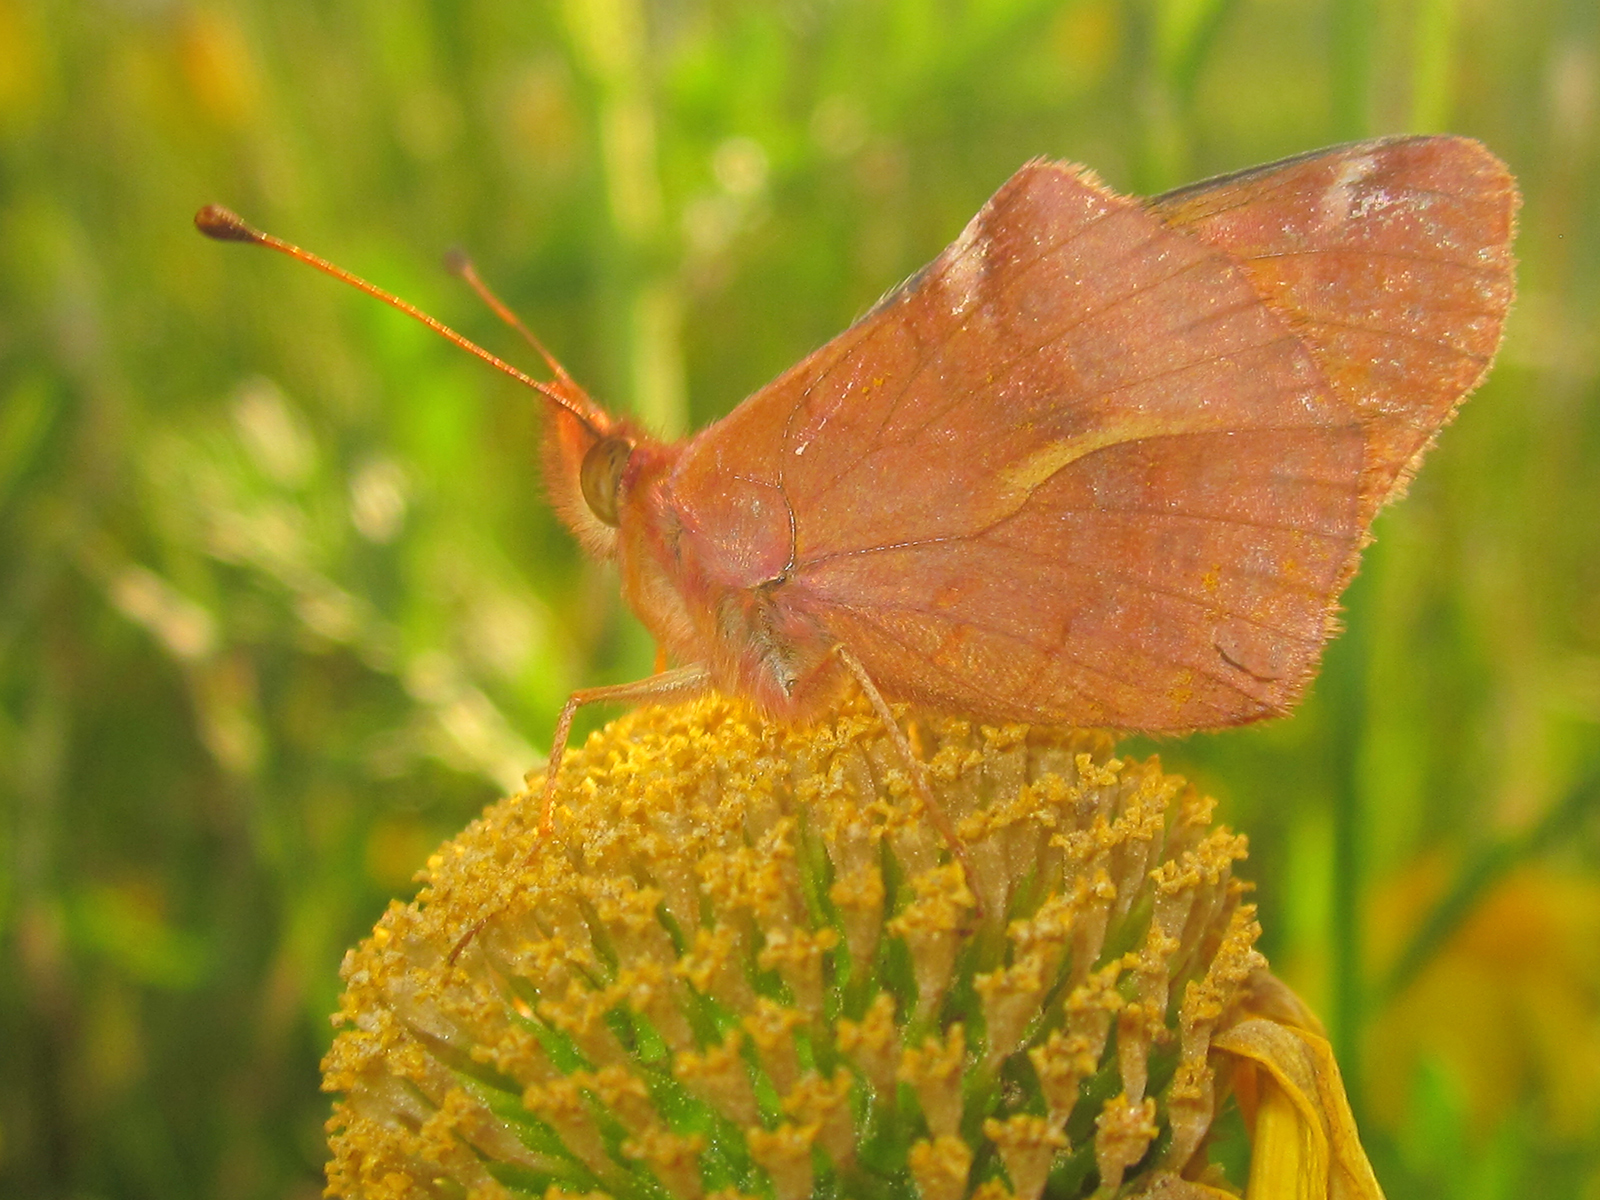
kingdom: Animalia
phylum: Arthropoda
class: Insecta
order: Lepidoptera
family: Nymphalidae
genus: Issoria
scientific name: Issoria Yramea cytheris
